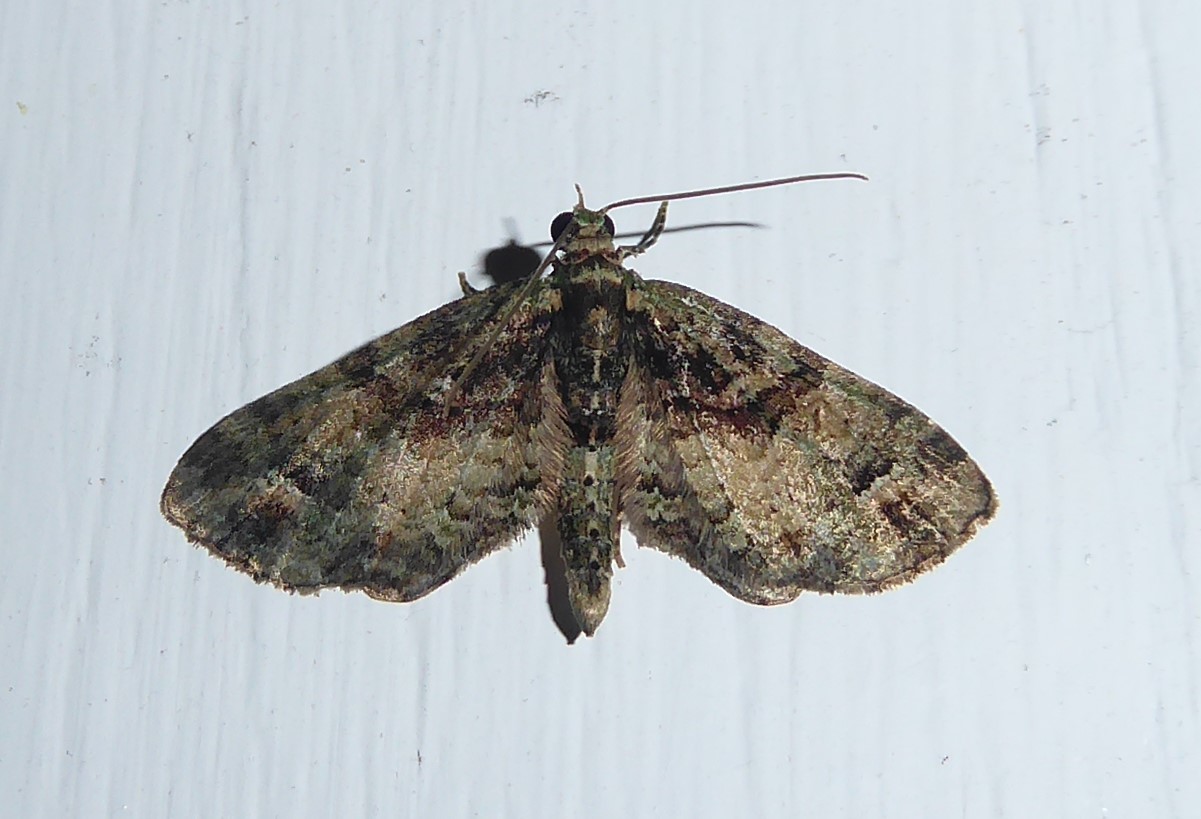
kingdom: Animalia
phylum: Arthropoda
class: Insecta
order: Lepidoptera
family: Geometridae
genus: Idaea
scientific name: Idaea mutanda
